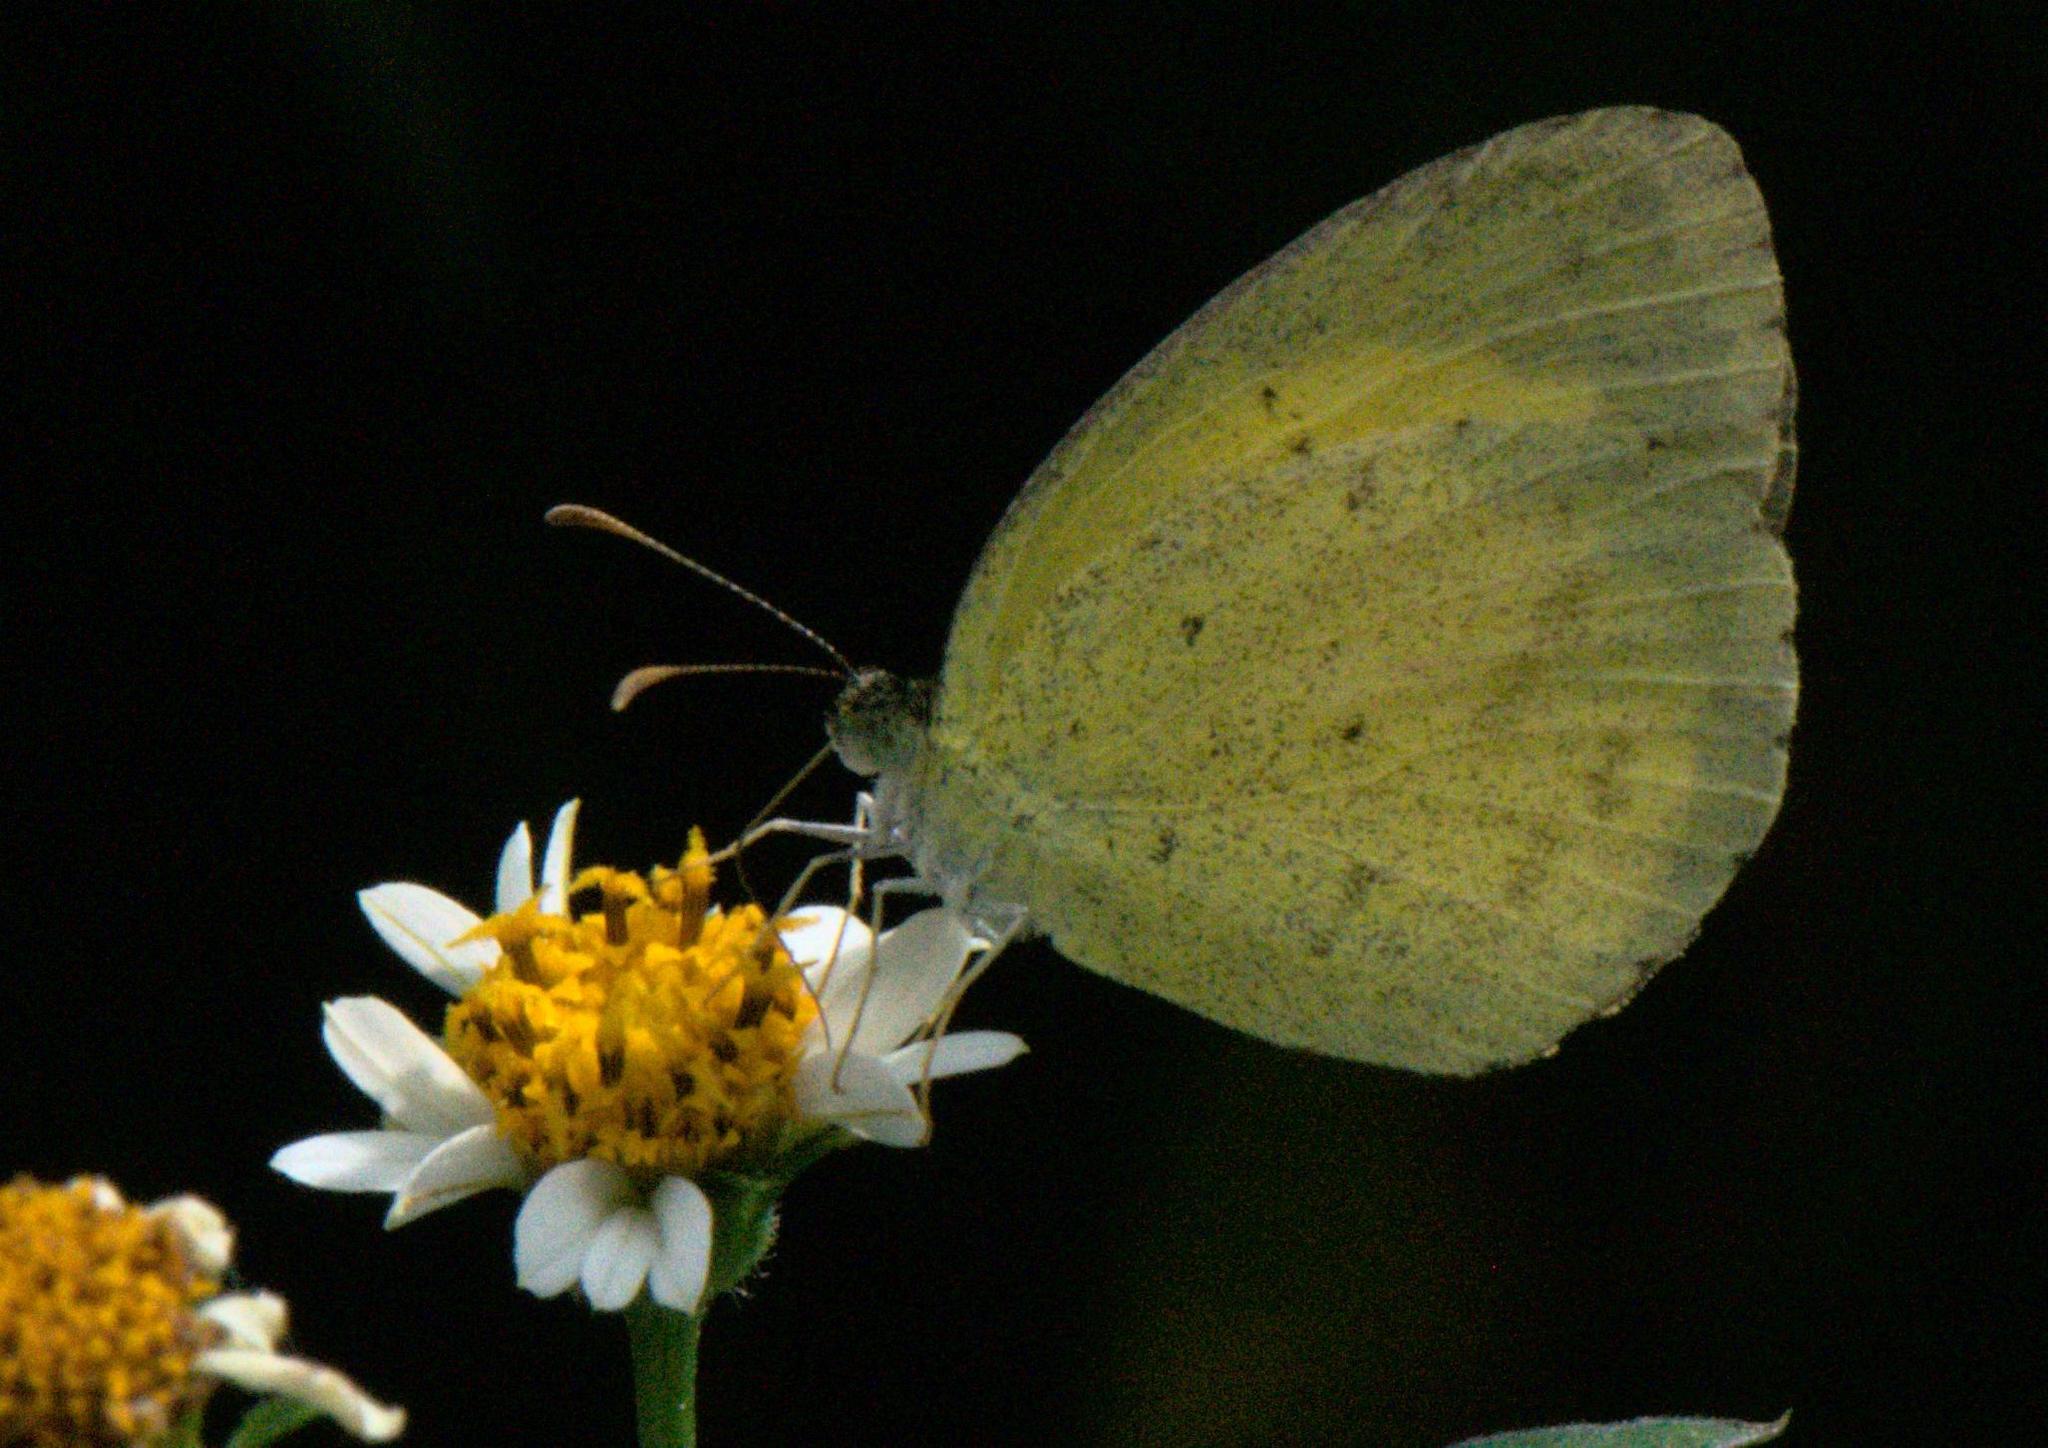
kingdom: Animalia
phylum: Arthropoda
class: Insecta
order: Lepidoptera
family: Pieridae
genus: Eurema
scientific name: Eurema brigitta
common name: Small grass yellow
